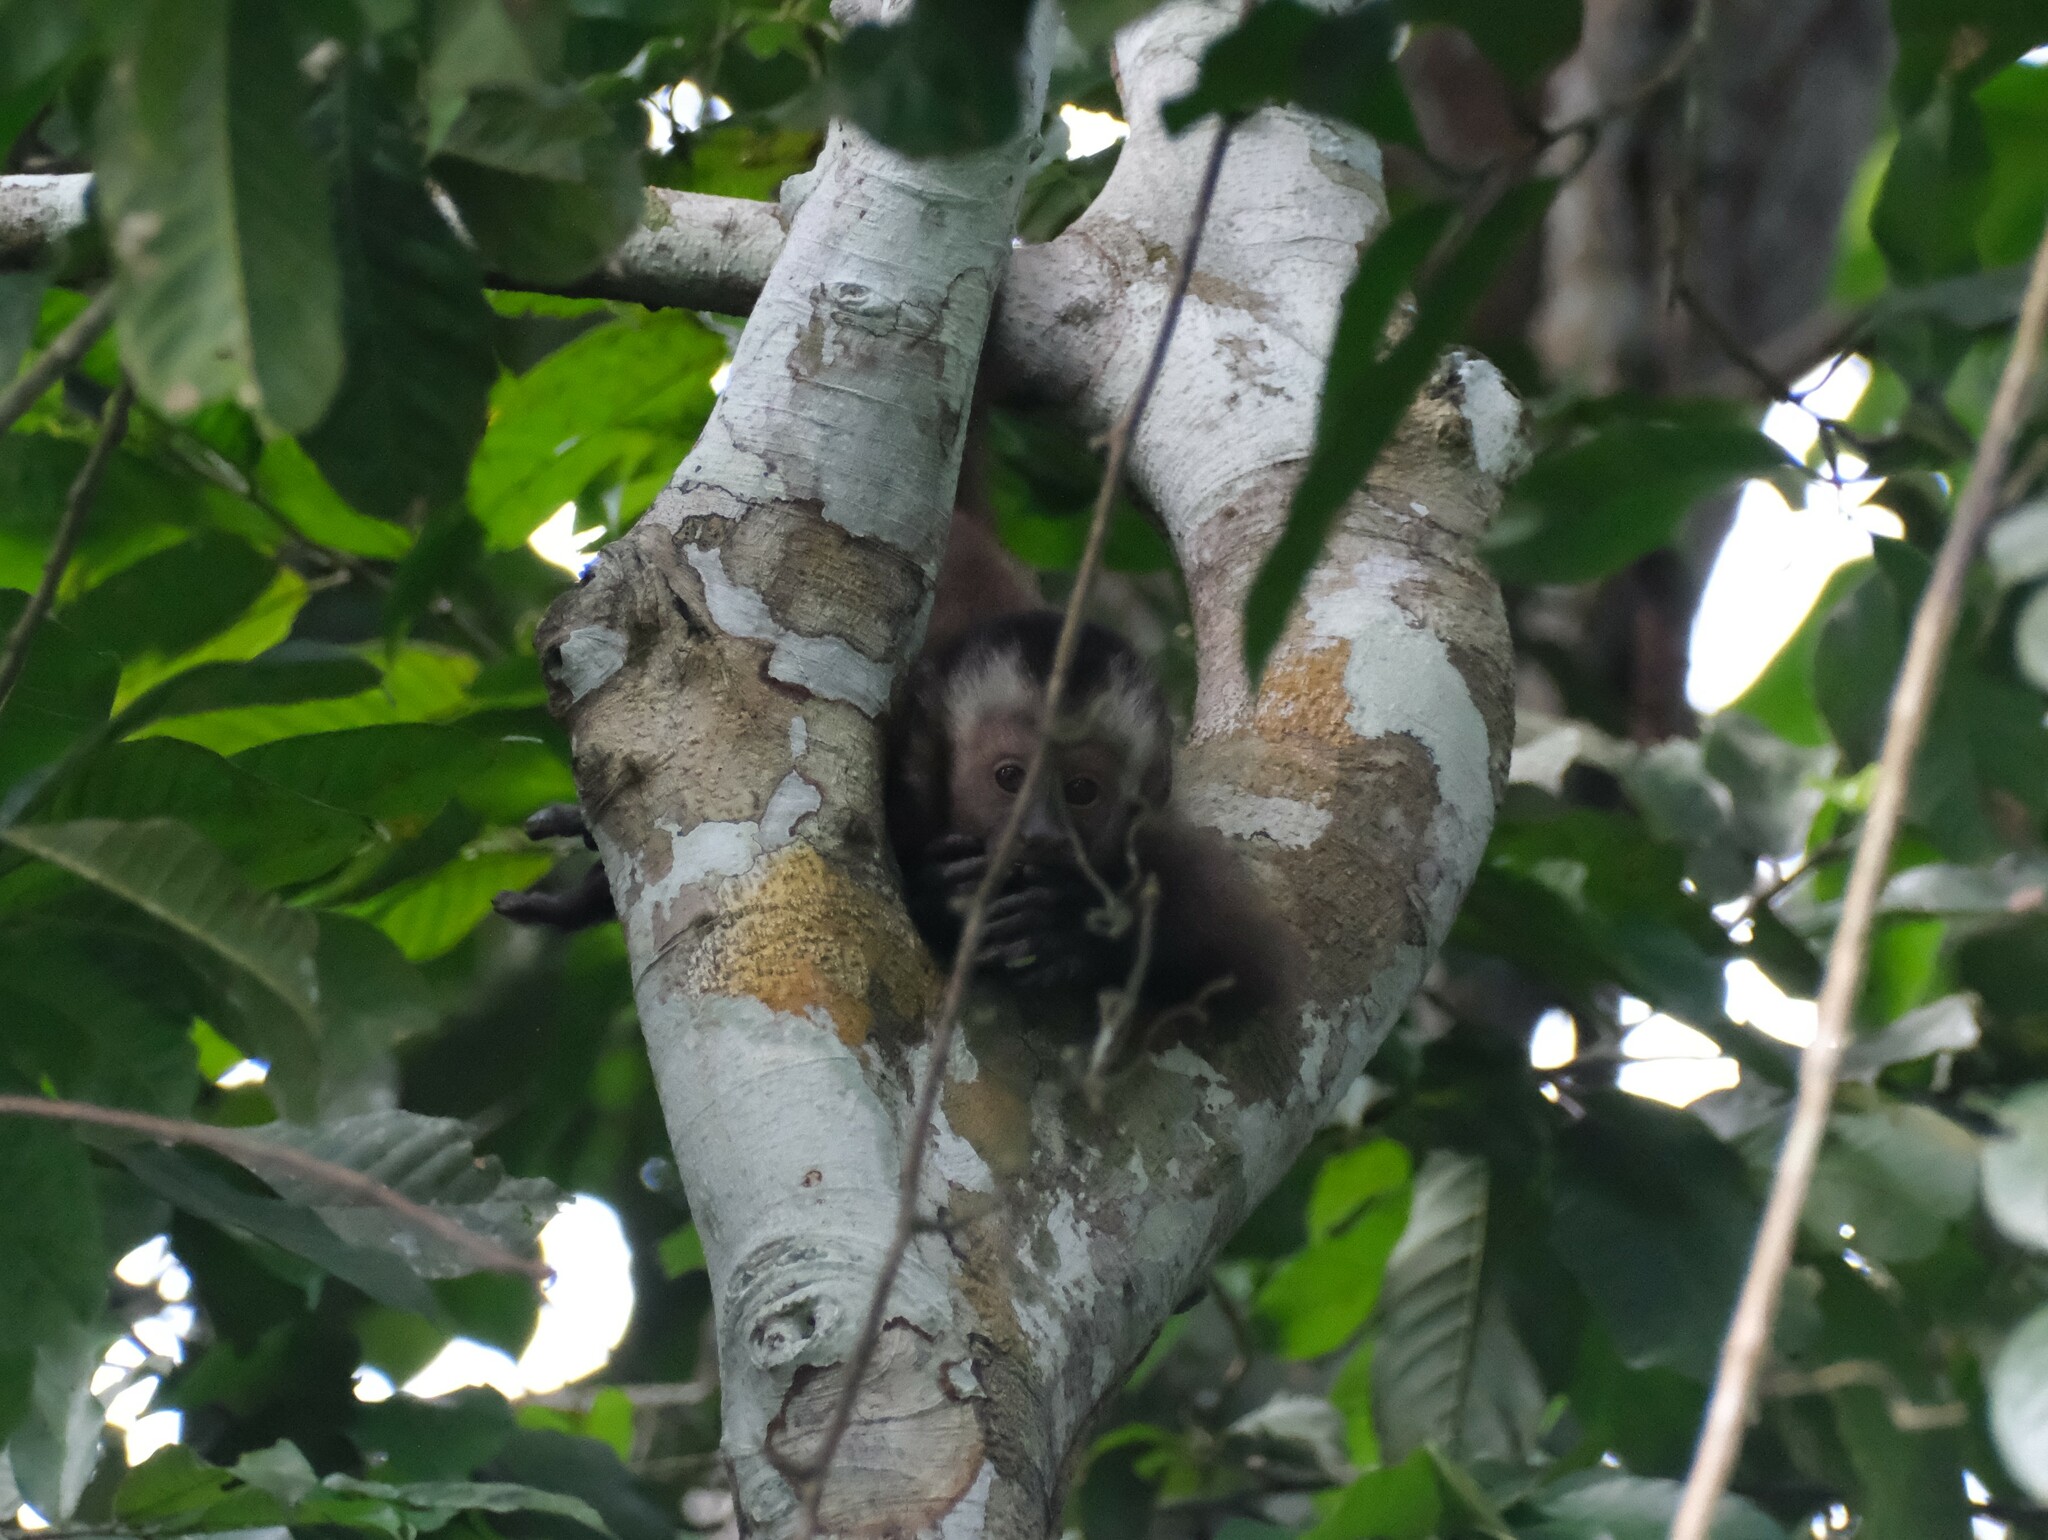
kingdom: Animalia
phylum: Chordata
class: Mammalia
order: Primates
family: Cebidae
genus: Sapajus
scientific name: Sapajus apella
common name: Tufted capuchin
